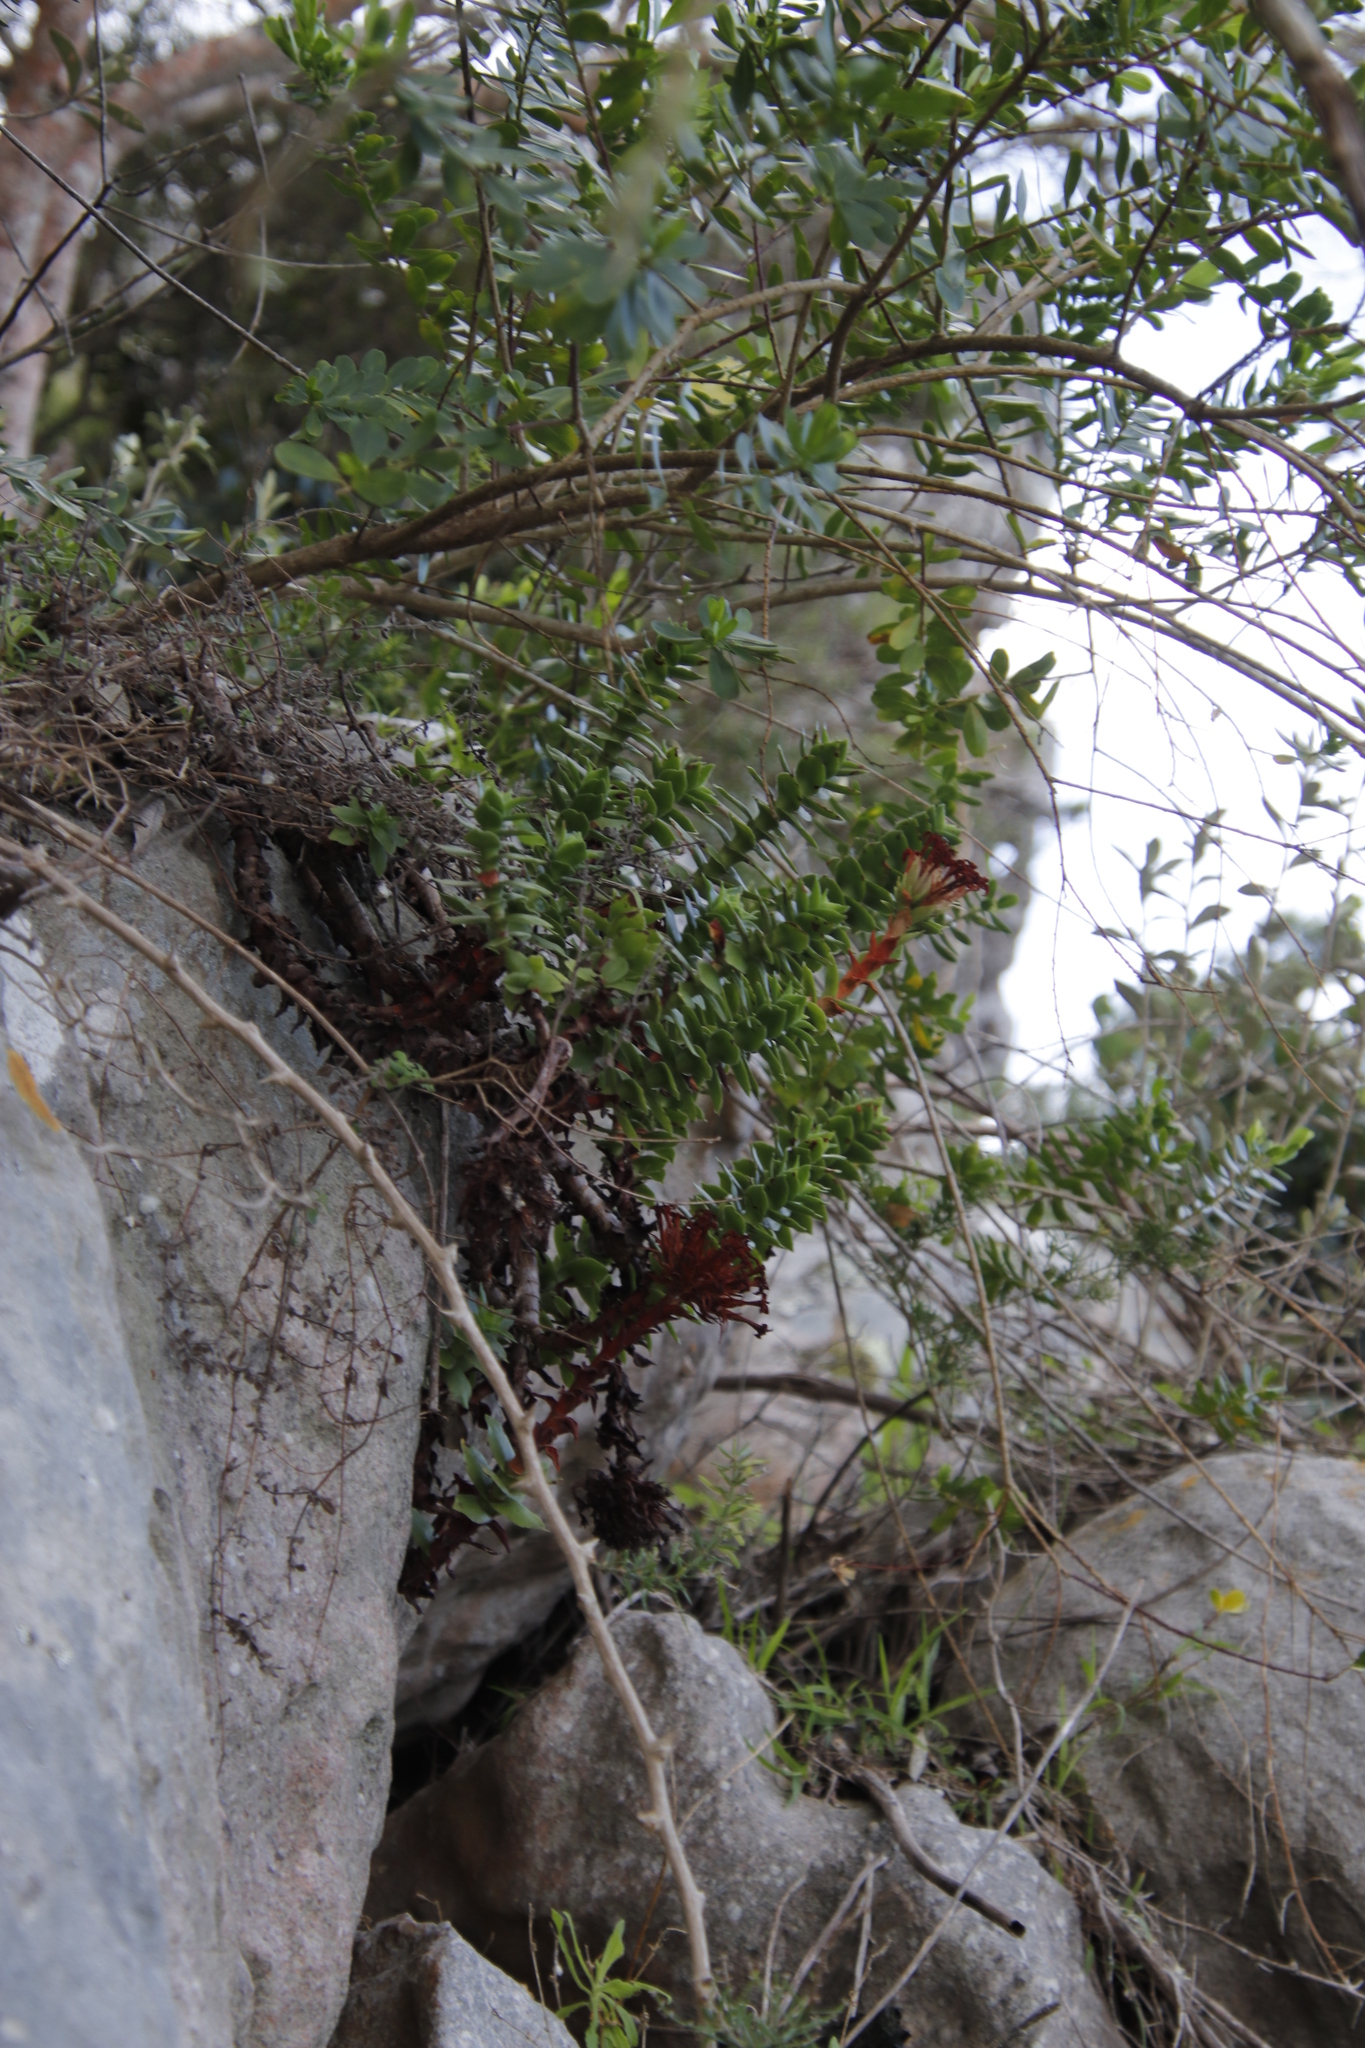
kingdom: Plantae
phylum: Tracheophyta
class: Magnoliopsida
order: Saxifragales
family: Crassulaceae
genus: Crassula
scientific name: Crassula coccinea
